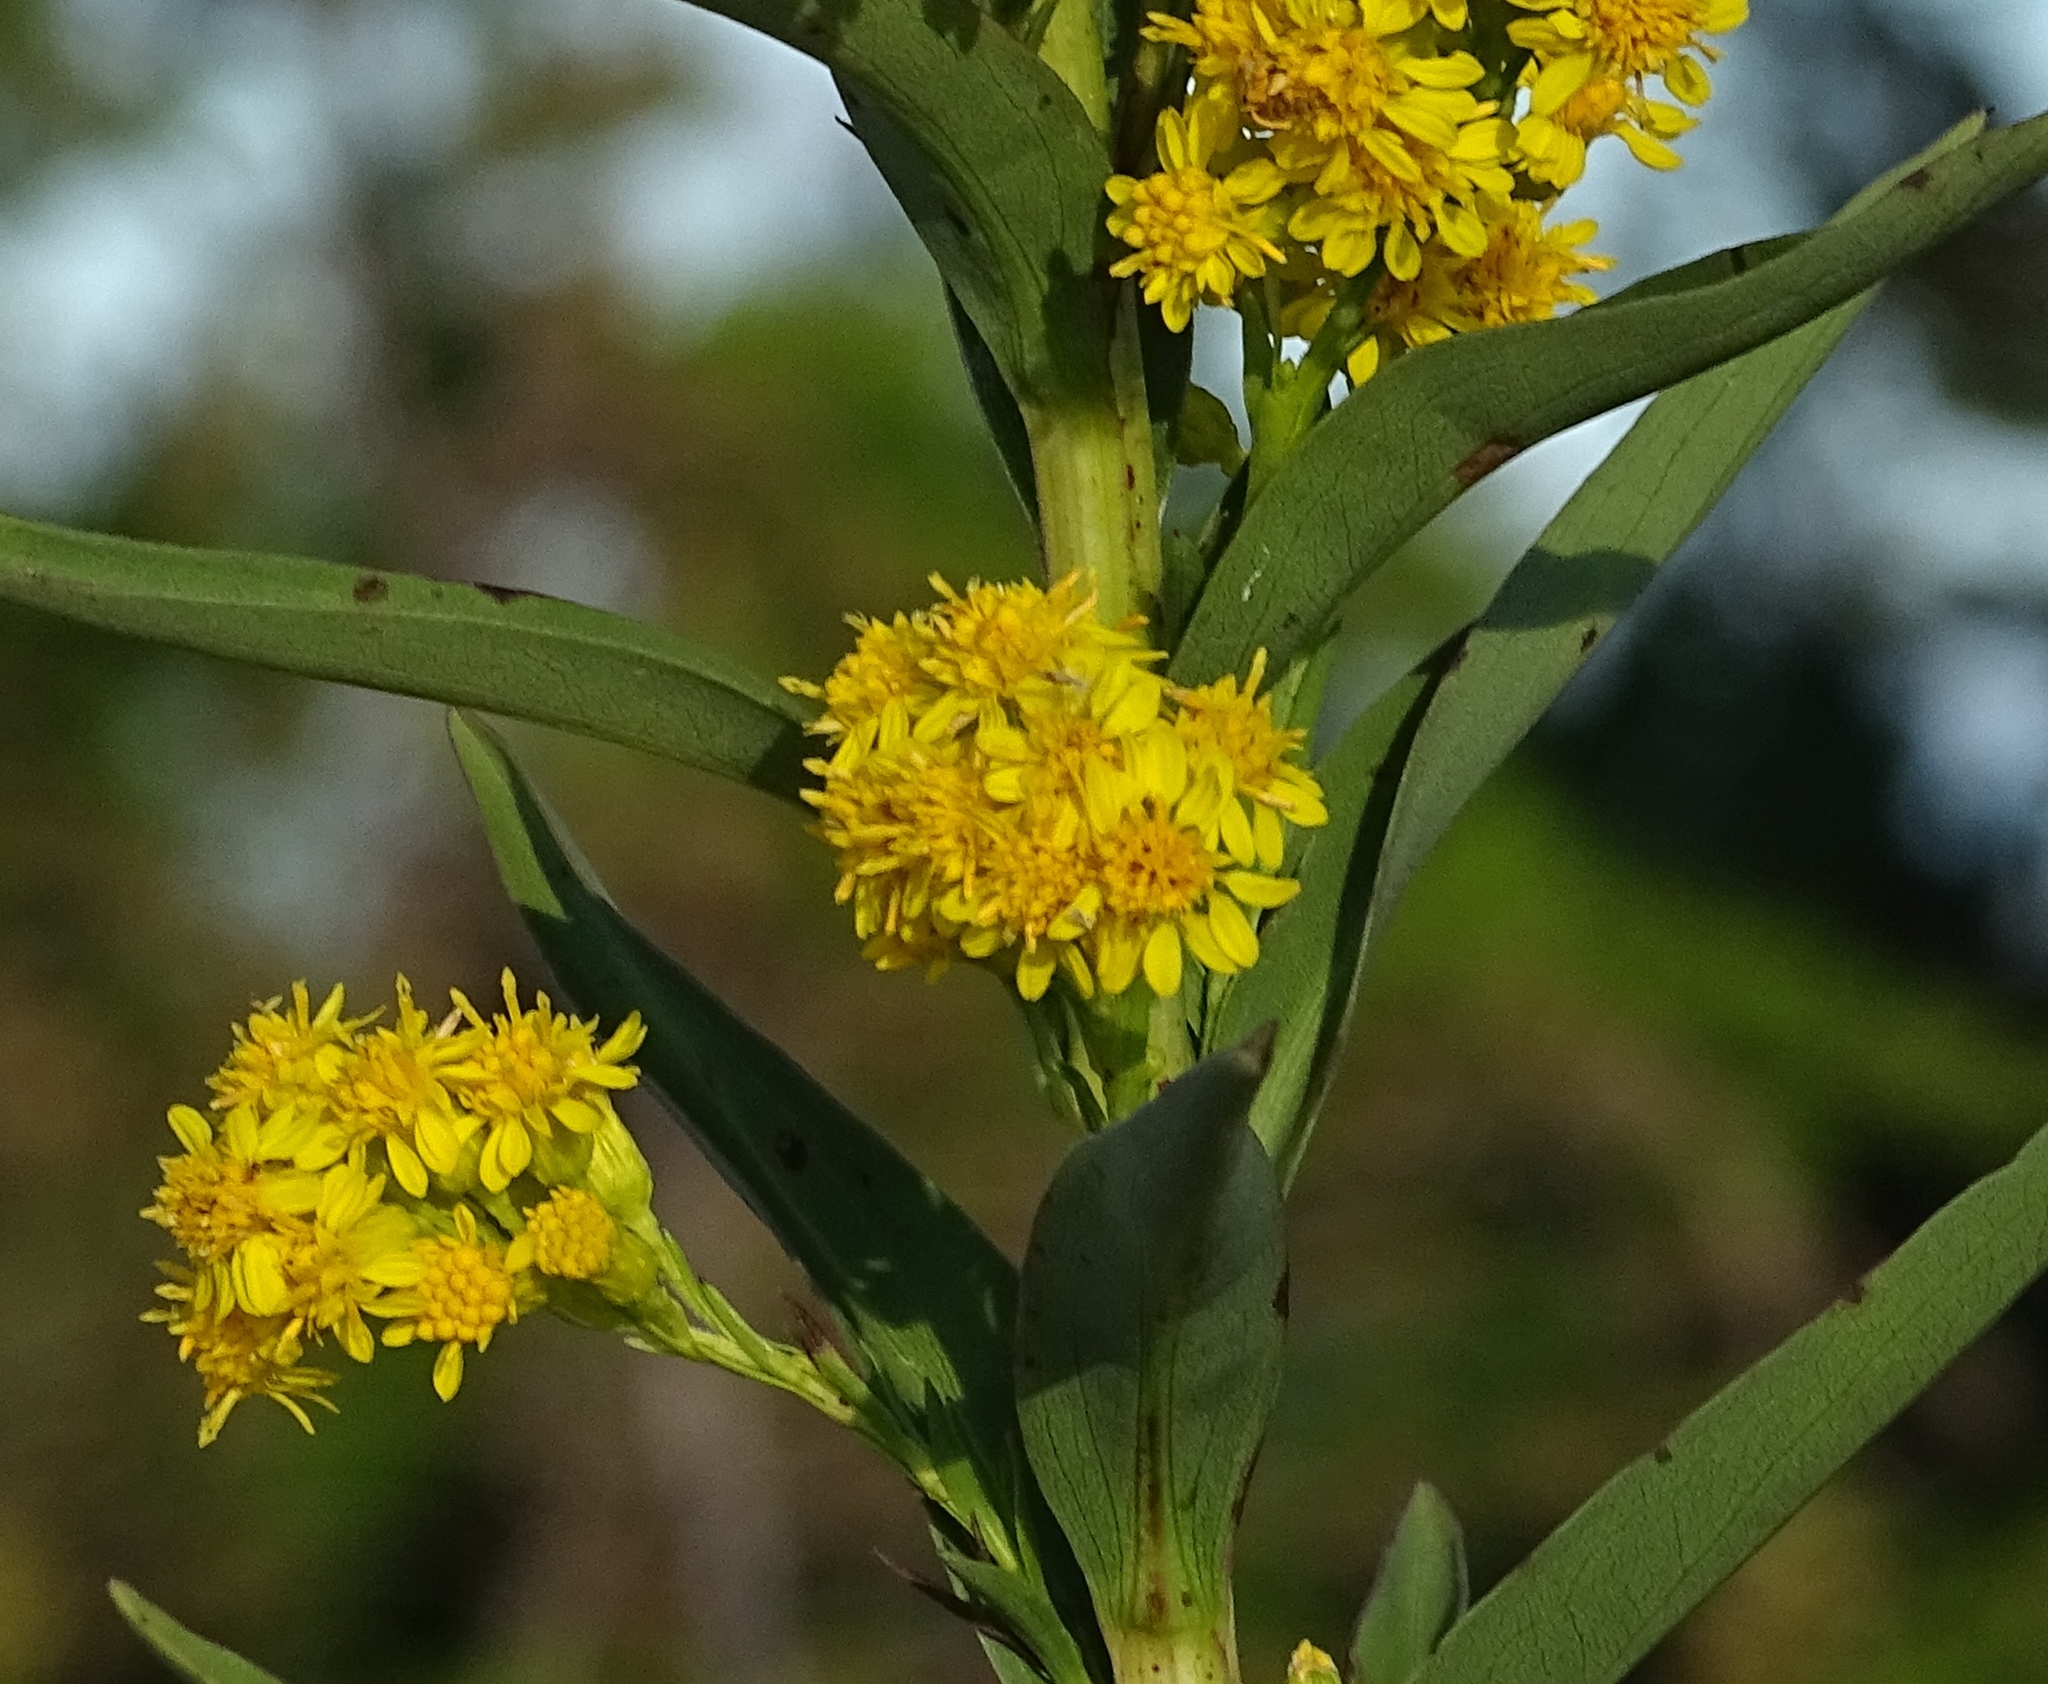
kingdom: Plantae
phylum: Tracheophyta
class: Magnoliopsida
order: Asterales
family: Asteraceae
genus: Solidago
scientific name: Solidago sempervirens
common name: Salt-marsh goldenrod
